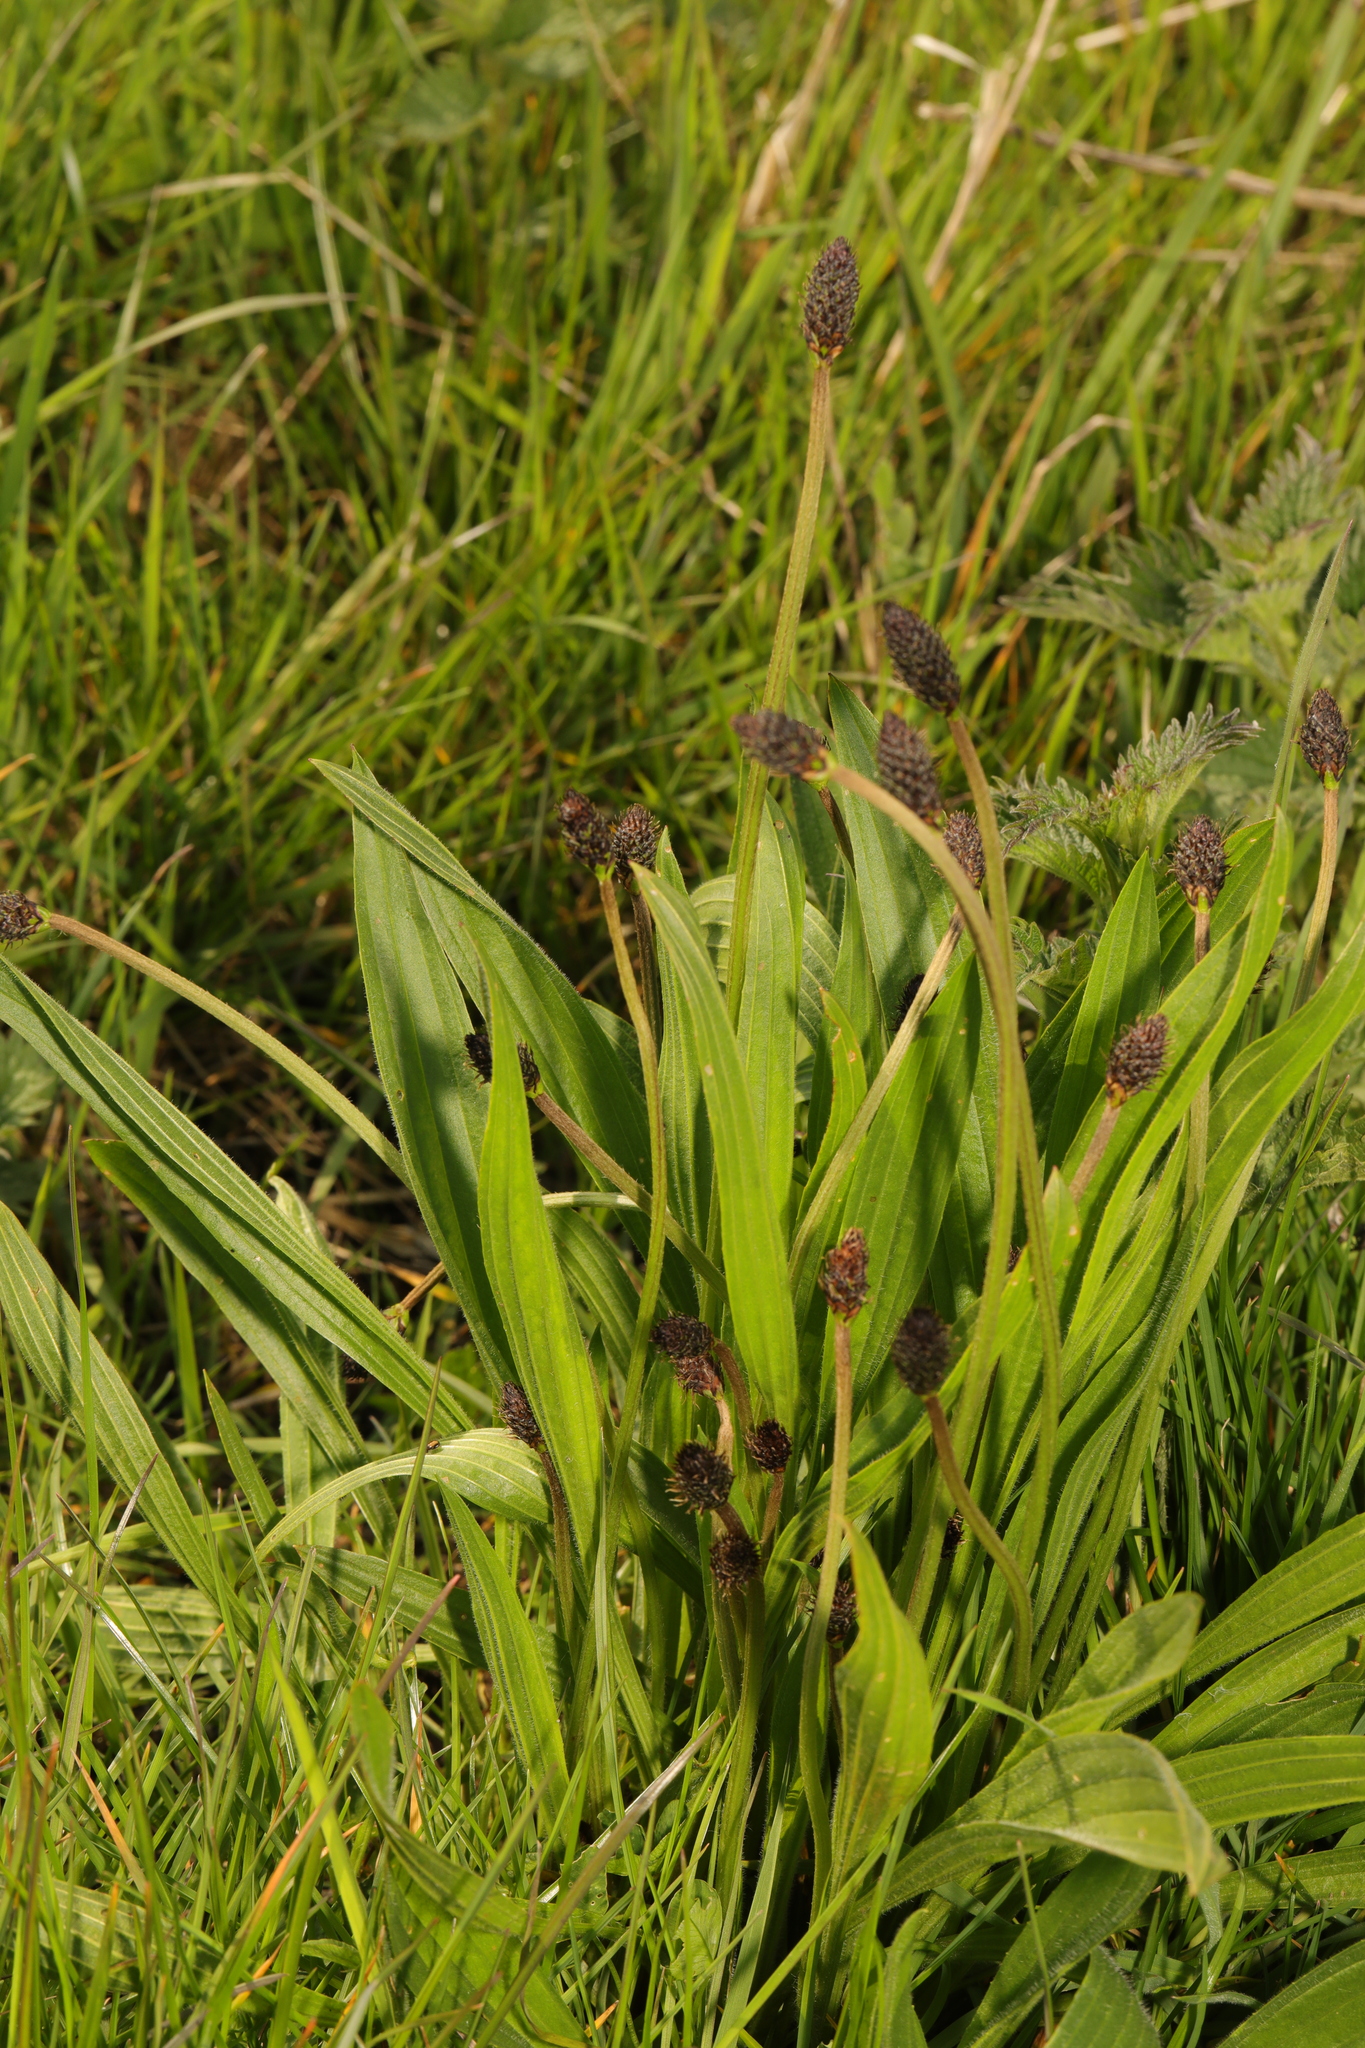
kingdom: Plantae
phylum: Tracheophyta
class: Magnoliopsida
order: Lamiales
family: Plantaginaceae
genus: Plantago
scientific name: Plantago lanceolata
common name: Ribwort plantain
